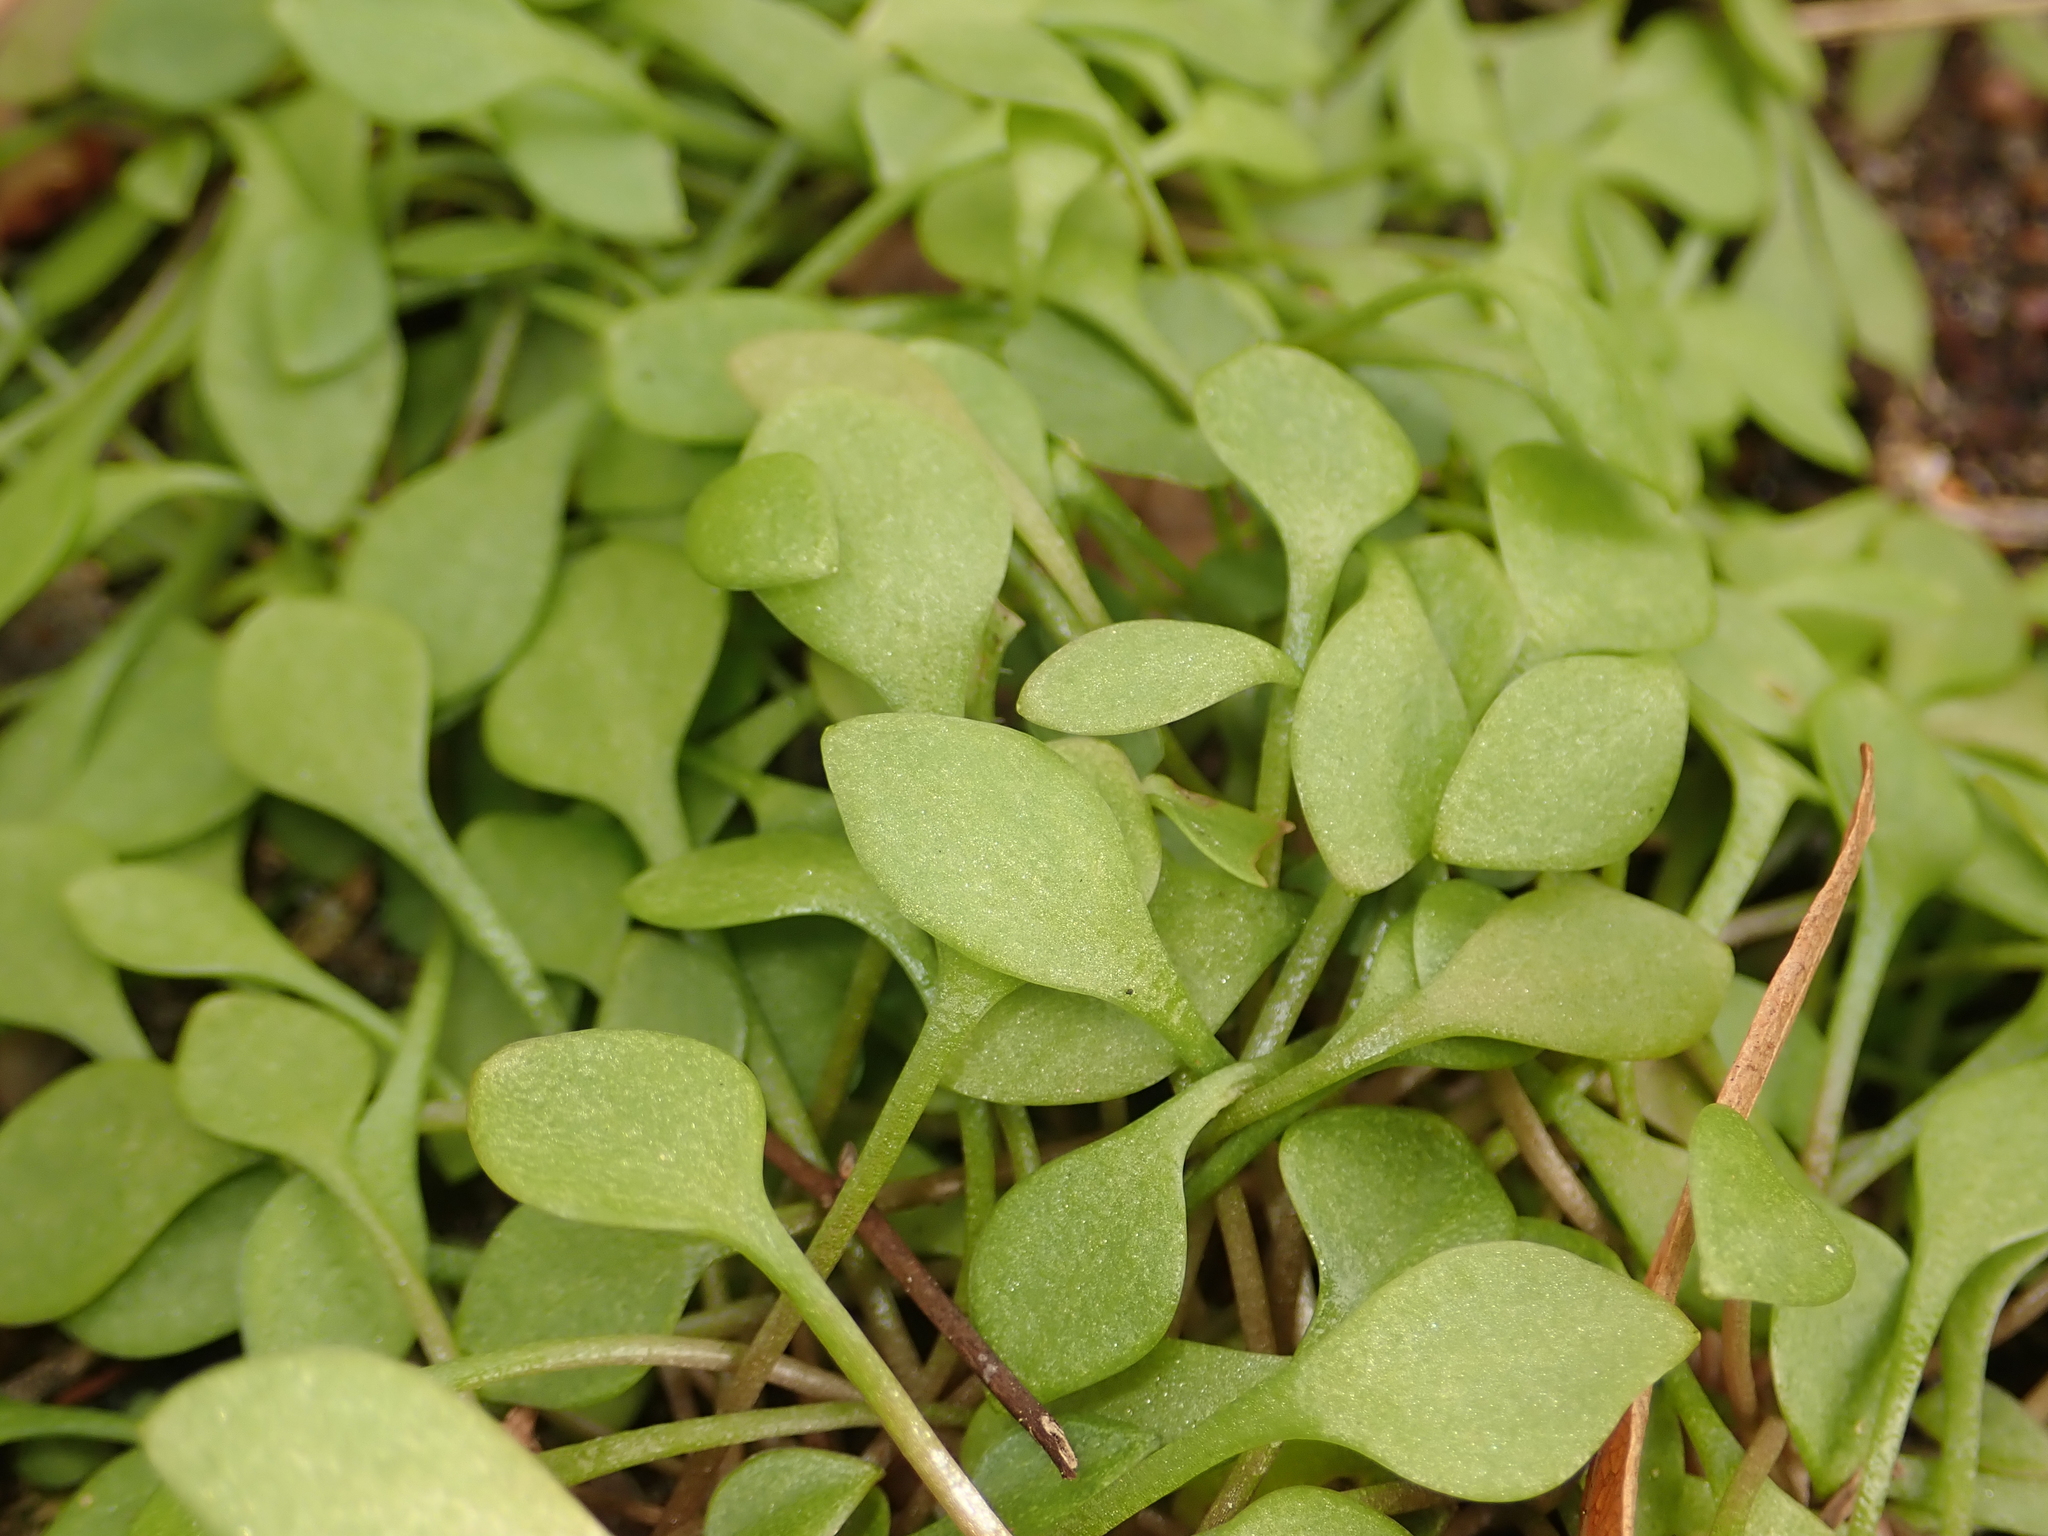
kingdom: Plantae
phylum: Tracheophyta
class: Magnoliopsida
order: Caryophyllales
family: Montiaceae
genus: Claytonia
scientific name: Claytonia perfoliata
